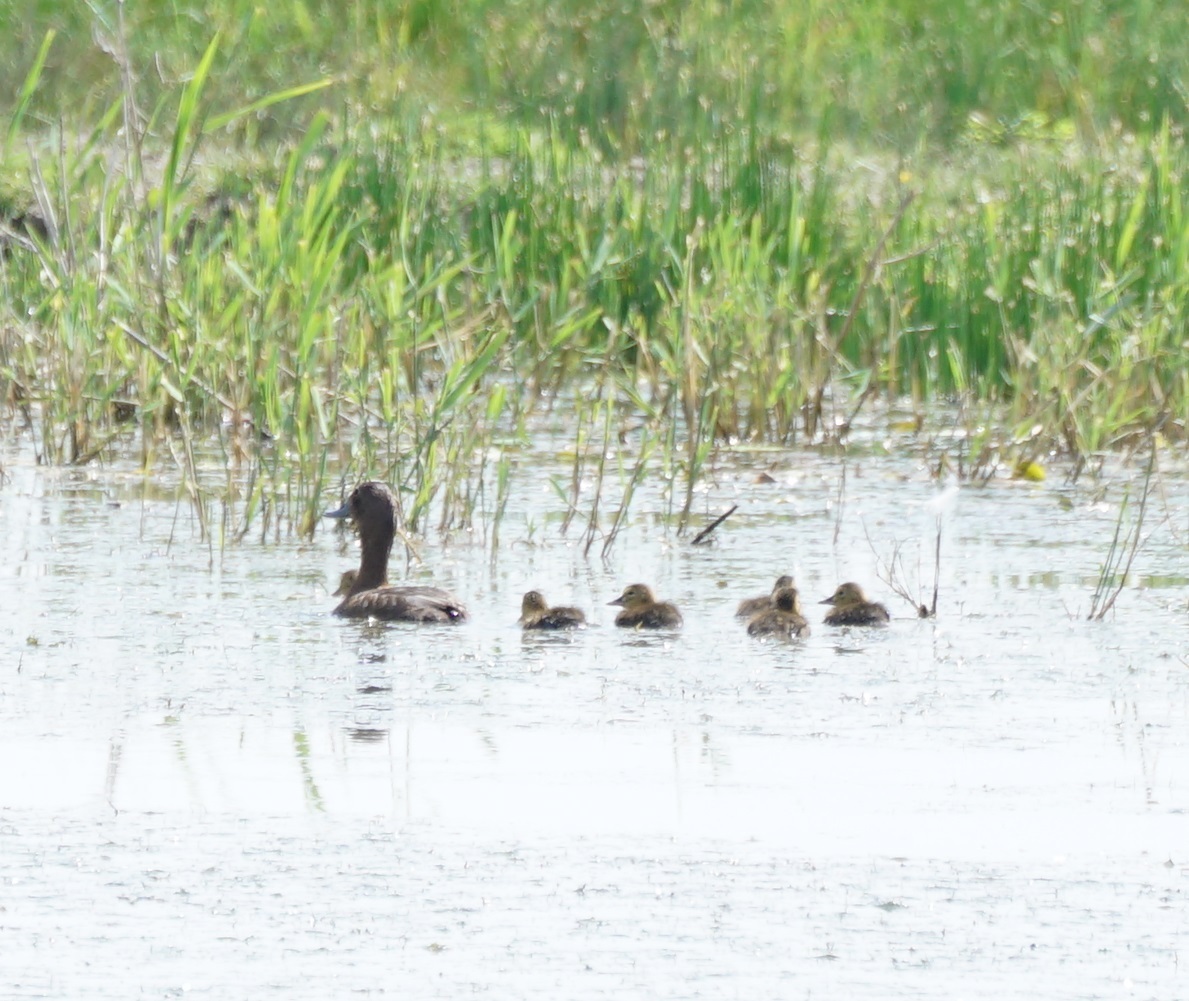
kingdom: Animalia
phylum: Chordata
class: Aves
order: Anseriformes
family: Anatidae
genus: Aythya
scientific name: Aythya ferina
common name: Common pochard
